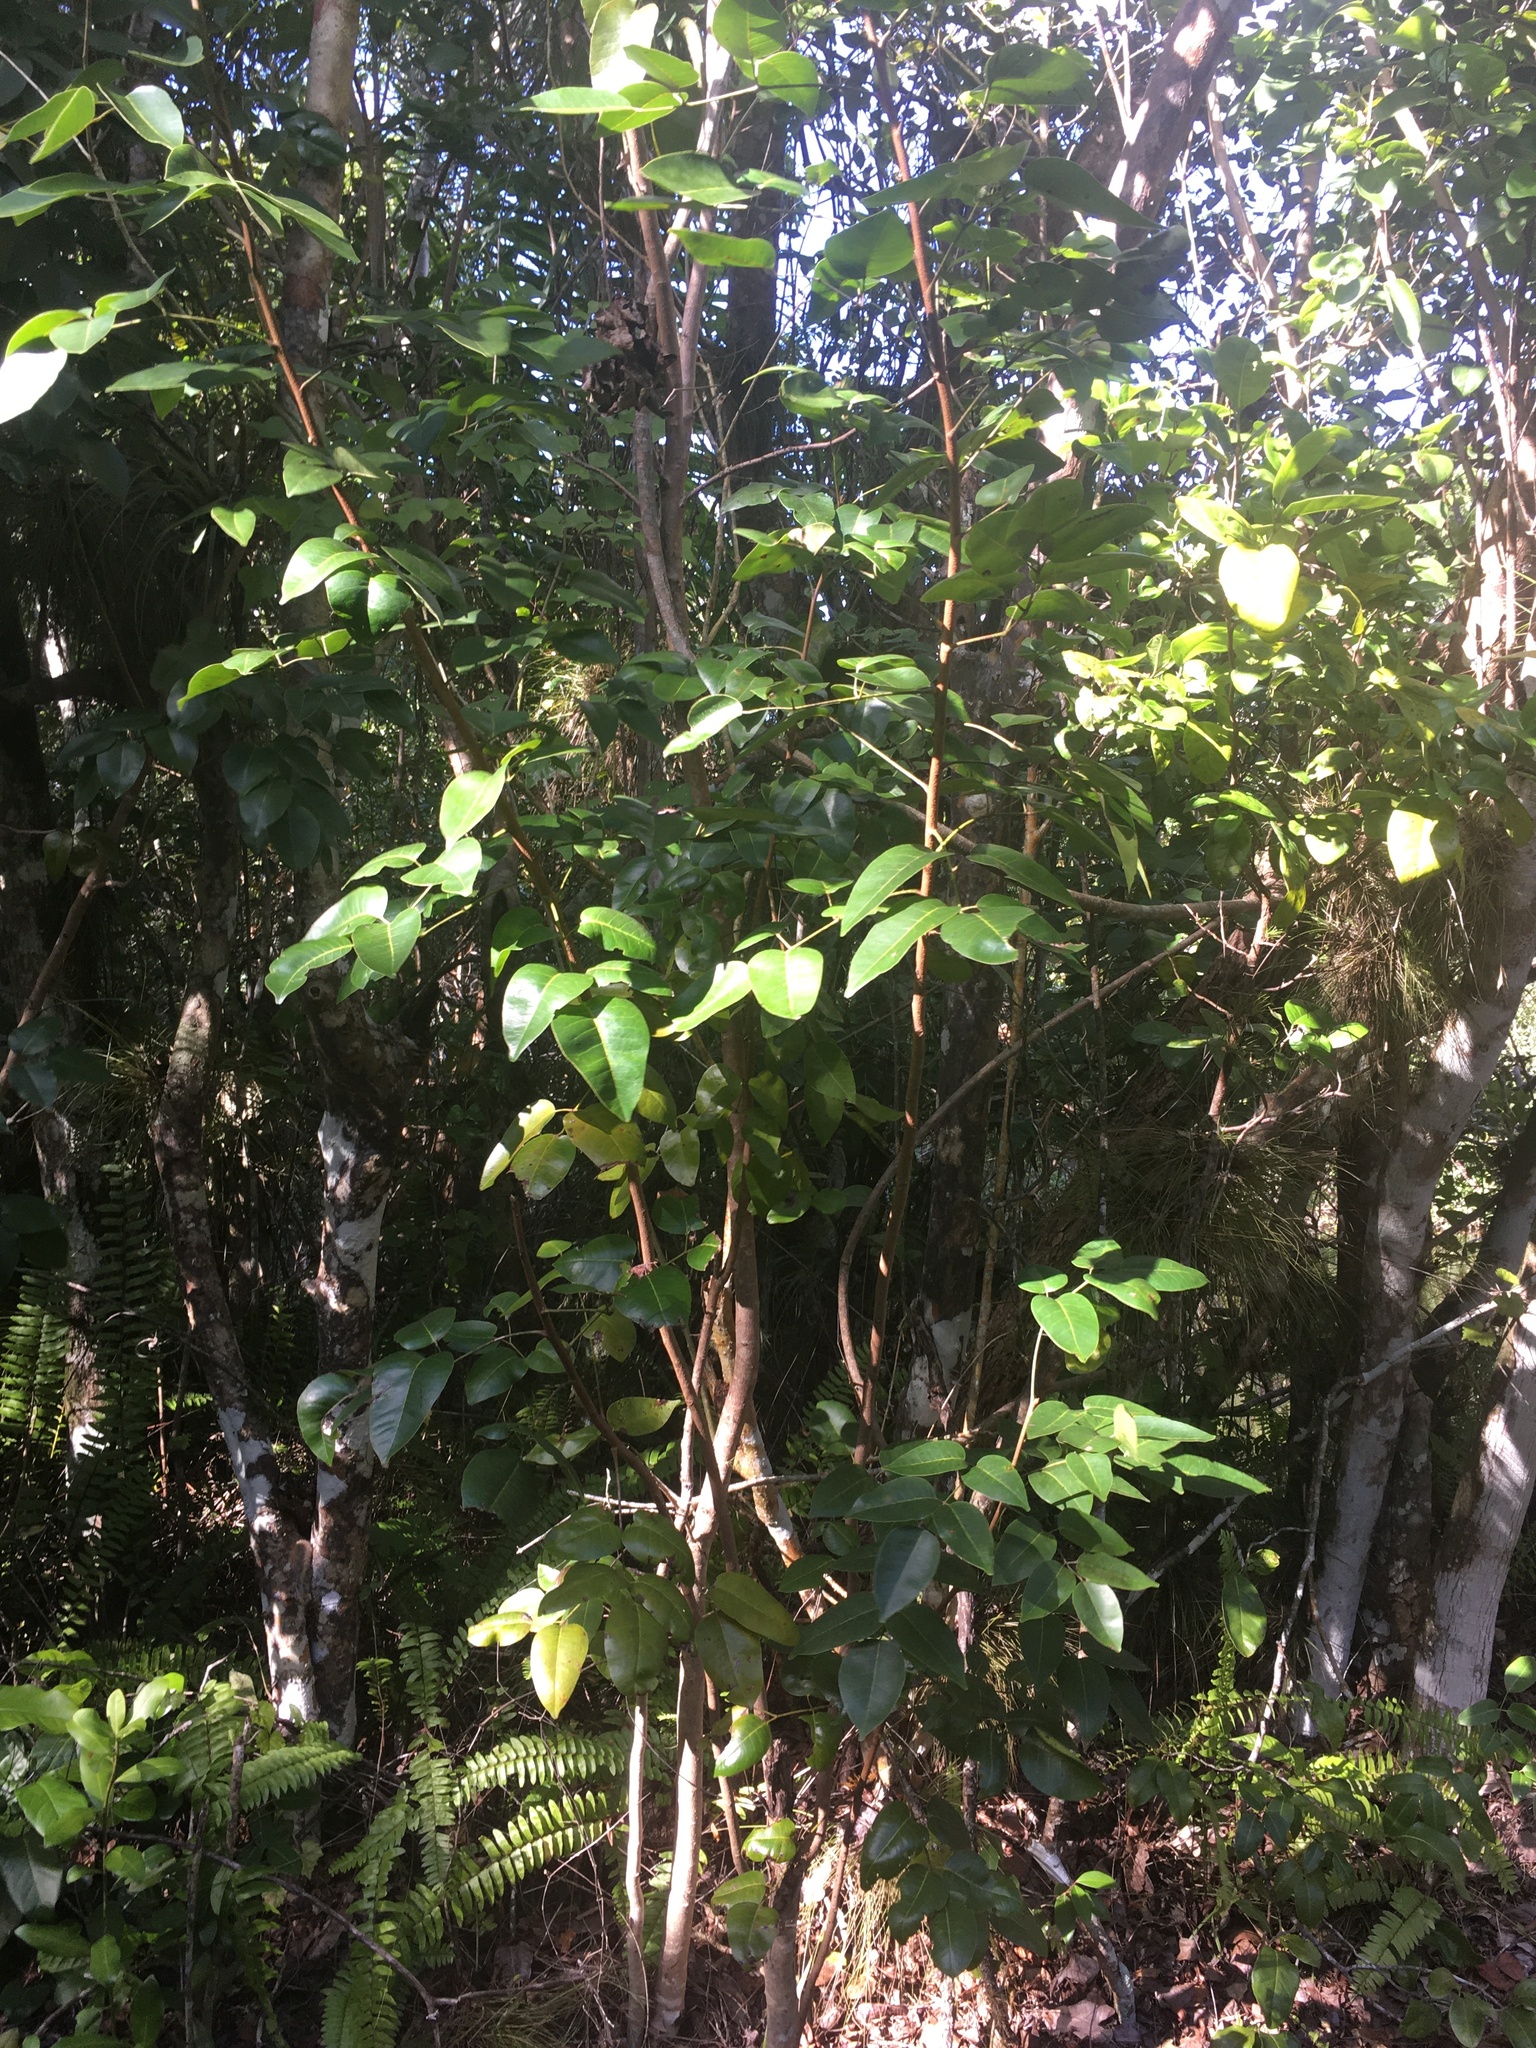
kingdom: Plantae
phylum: Tracheophyta
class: Magnoliopsida
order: Sapindales
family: Anacardiaceae
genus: Metopium
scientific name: Metopium toxiferum
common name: Florida poisontree
